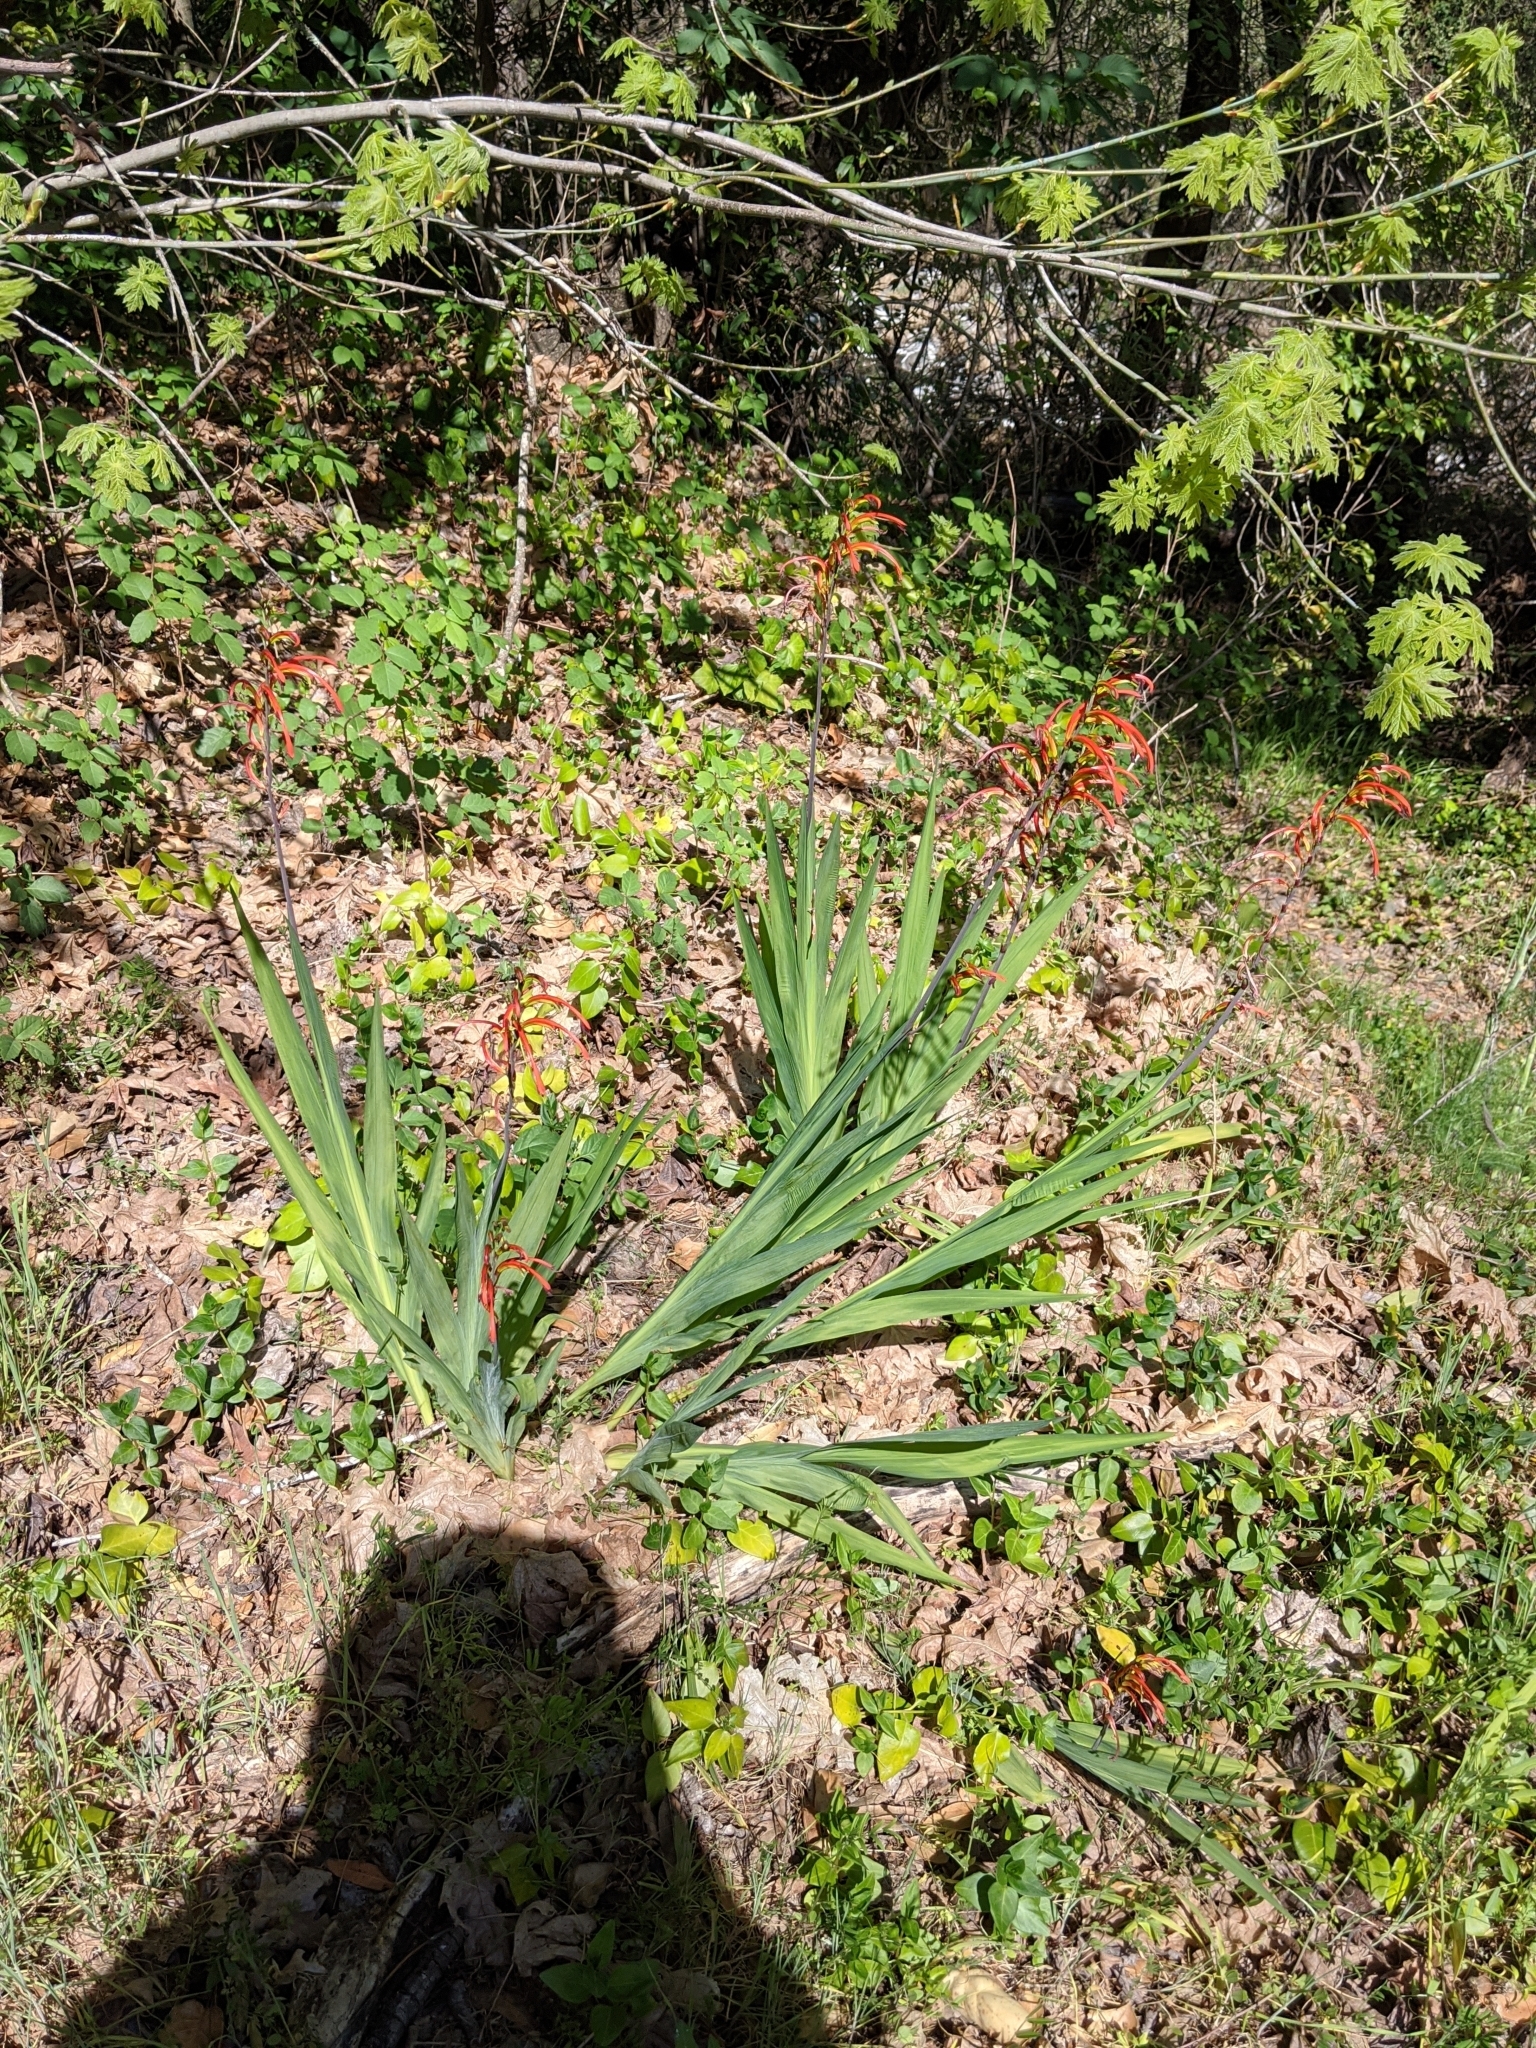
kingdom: Plantae
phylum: Tracheophyta
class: Liliopsida
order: Asparagales
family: Iridaceae
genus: Chasmanthe
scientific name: Chasmanthe bicolor
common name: Bicolor cobra lily
